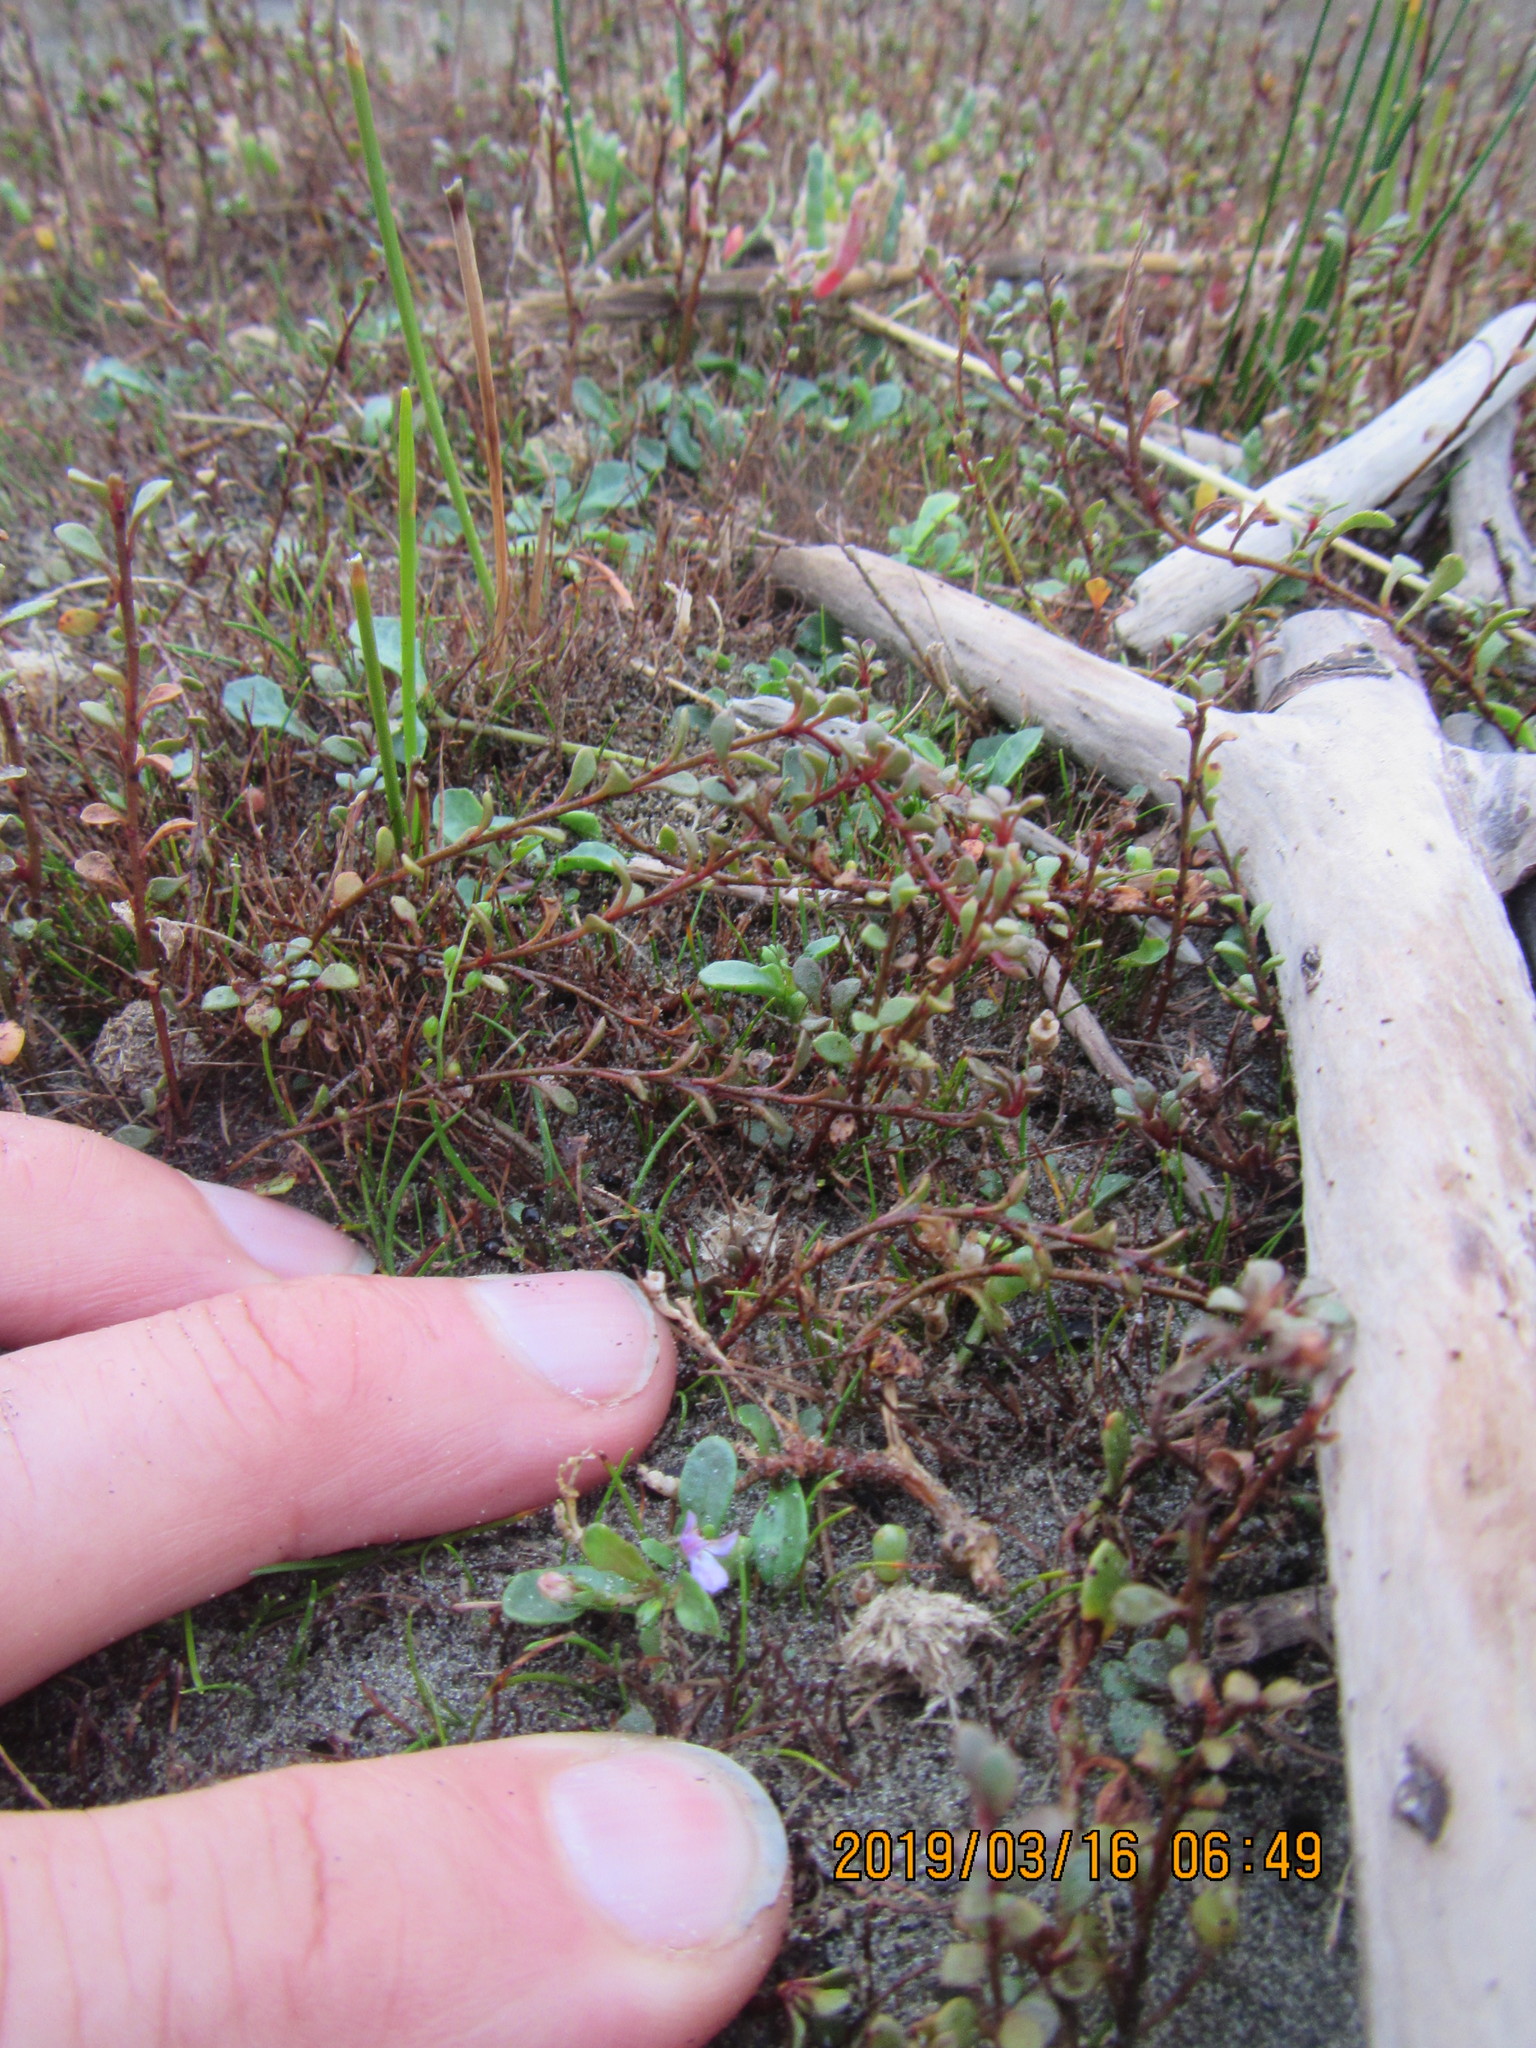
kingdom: Plantae
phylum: Tracheophyta
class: Magnoliopsida
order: Asterales
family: Campanulaceae
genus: Lobelia
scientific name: Lobelia anceps
